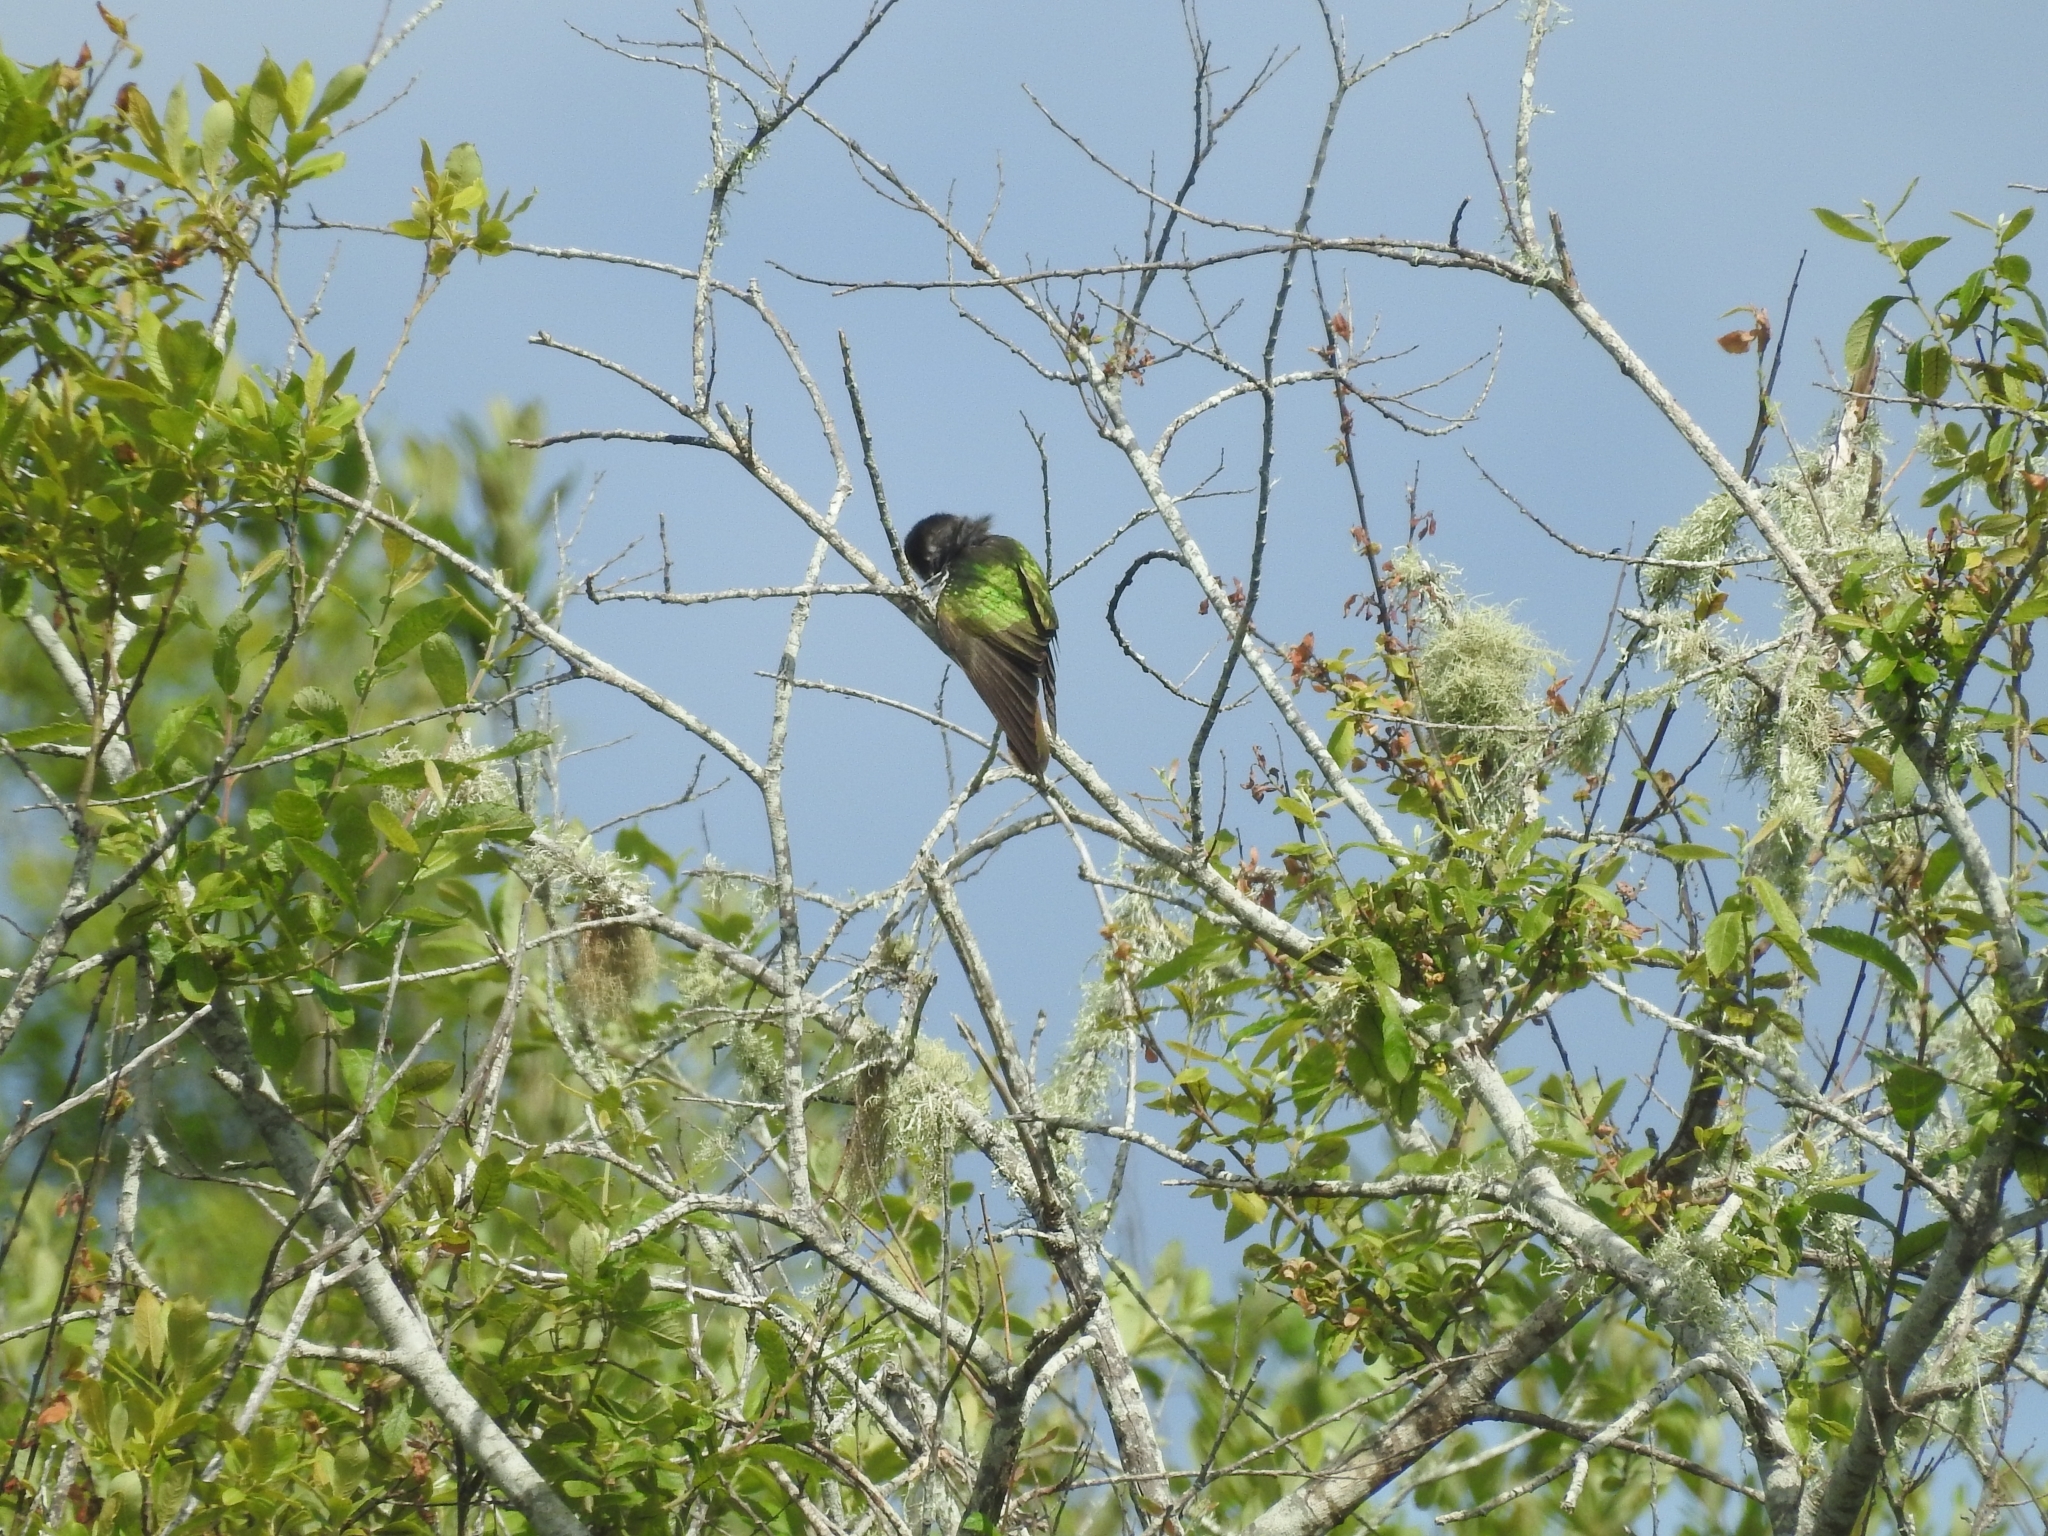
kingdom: Animalia
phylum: Chordata
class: Aves
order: Cuculiformes
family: Cuculidae
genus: Chrysococcyx
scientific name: Chrysococcyx lucidus
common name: Shining bronze cuckoo
